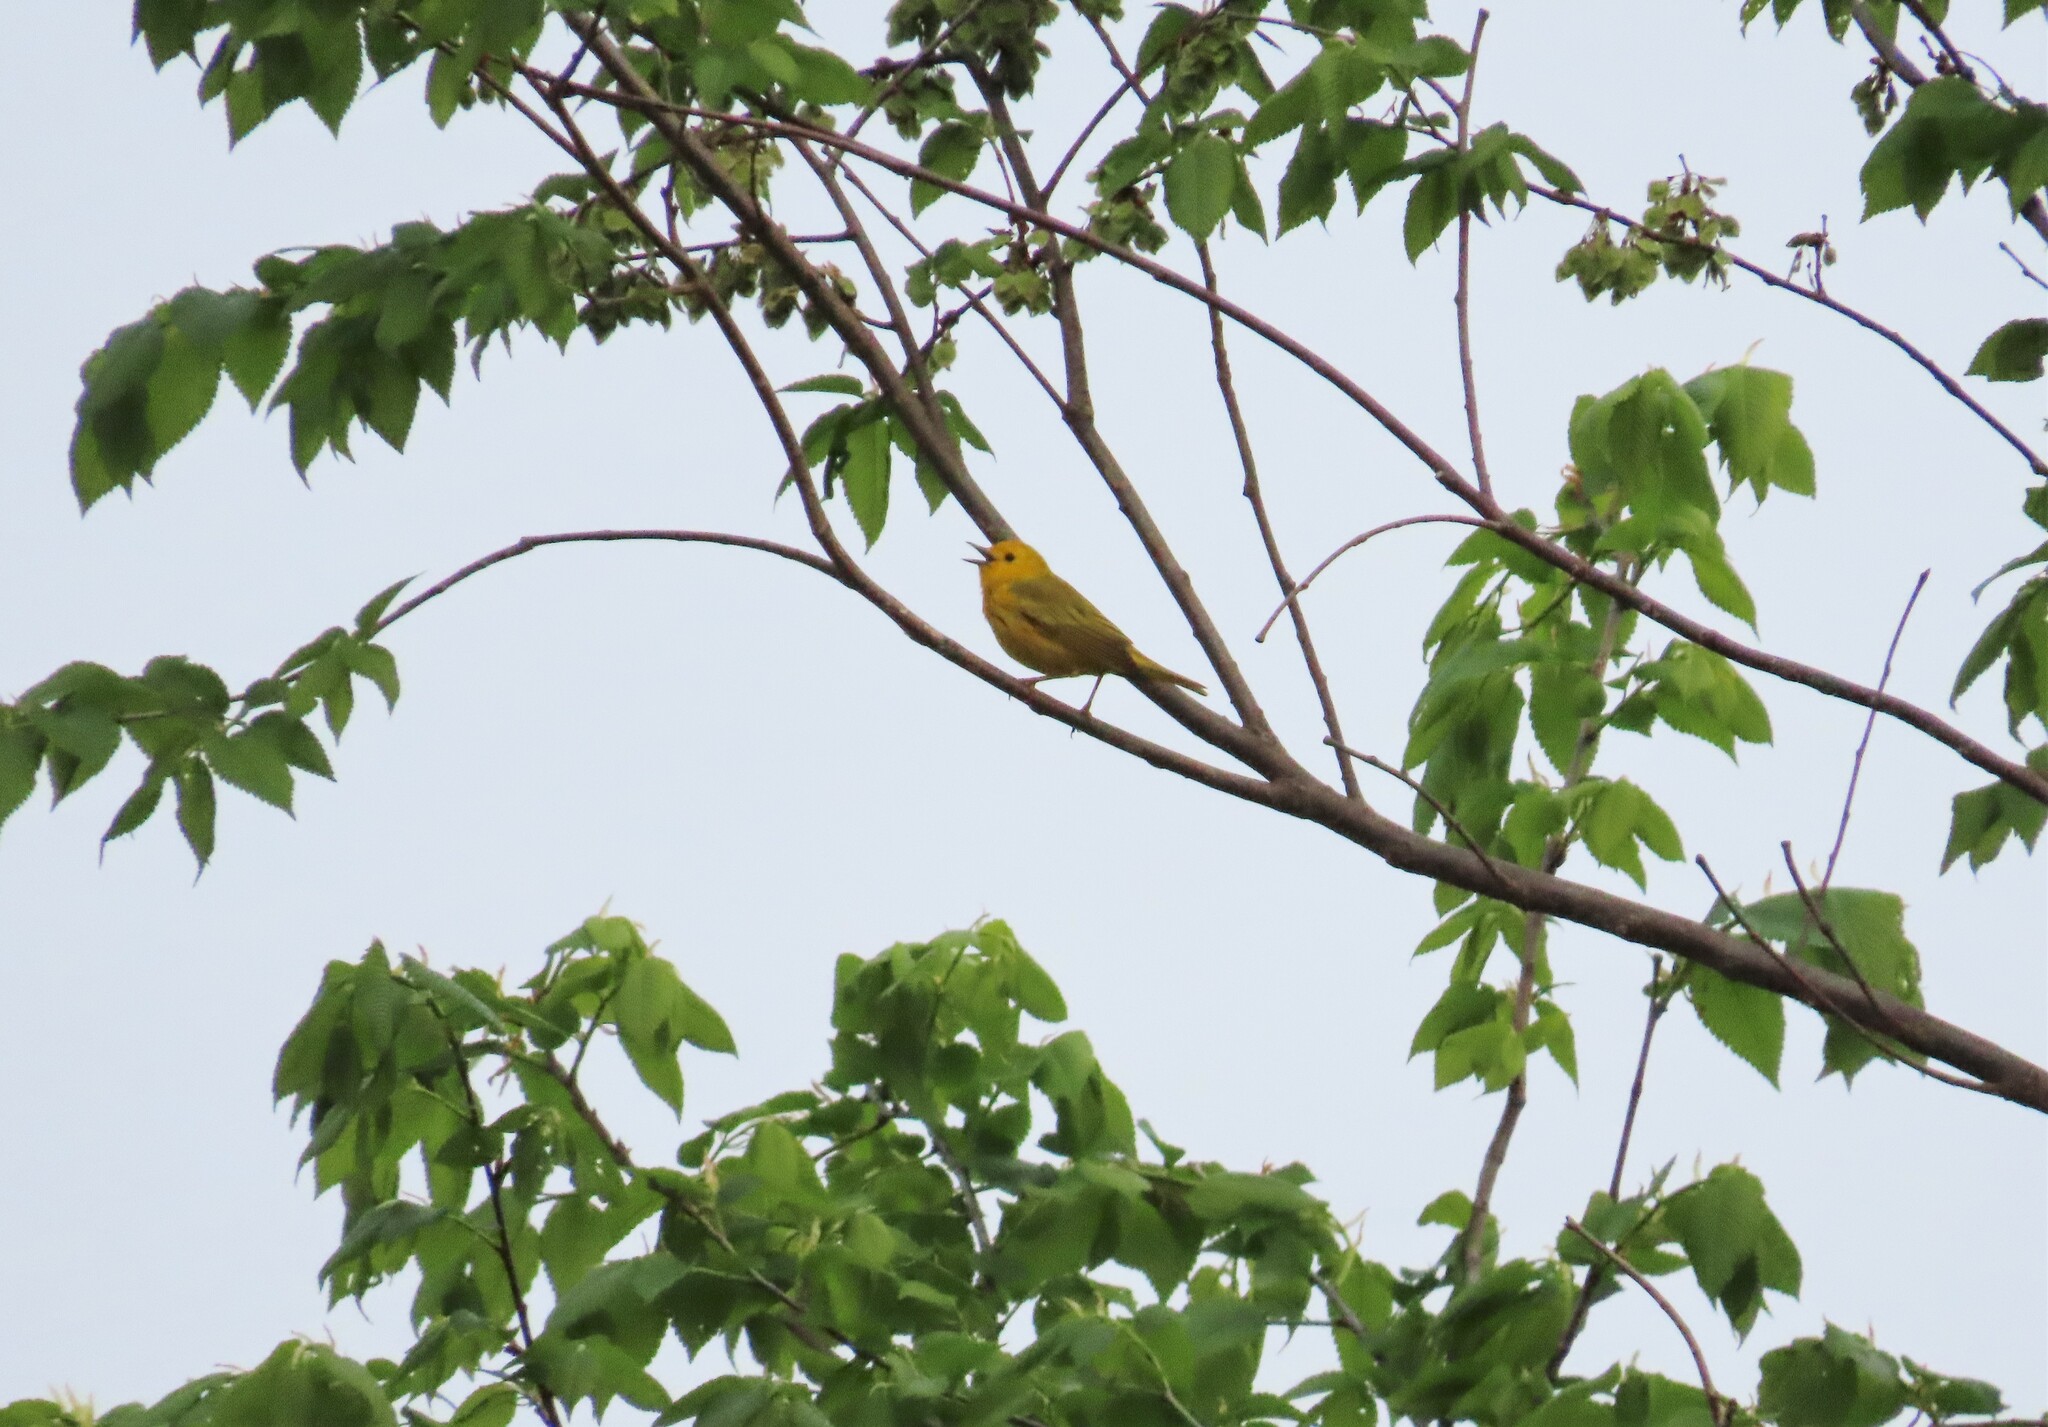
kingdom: Animalia
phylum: Chordata
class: Aves
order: Passeriformes
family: Parulidae
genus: Setophaga
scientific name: Setophaga petechia
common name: Yellow warbler
